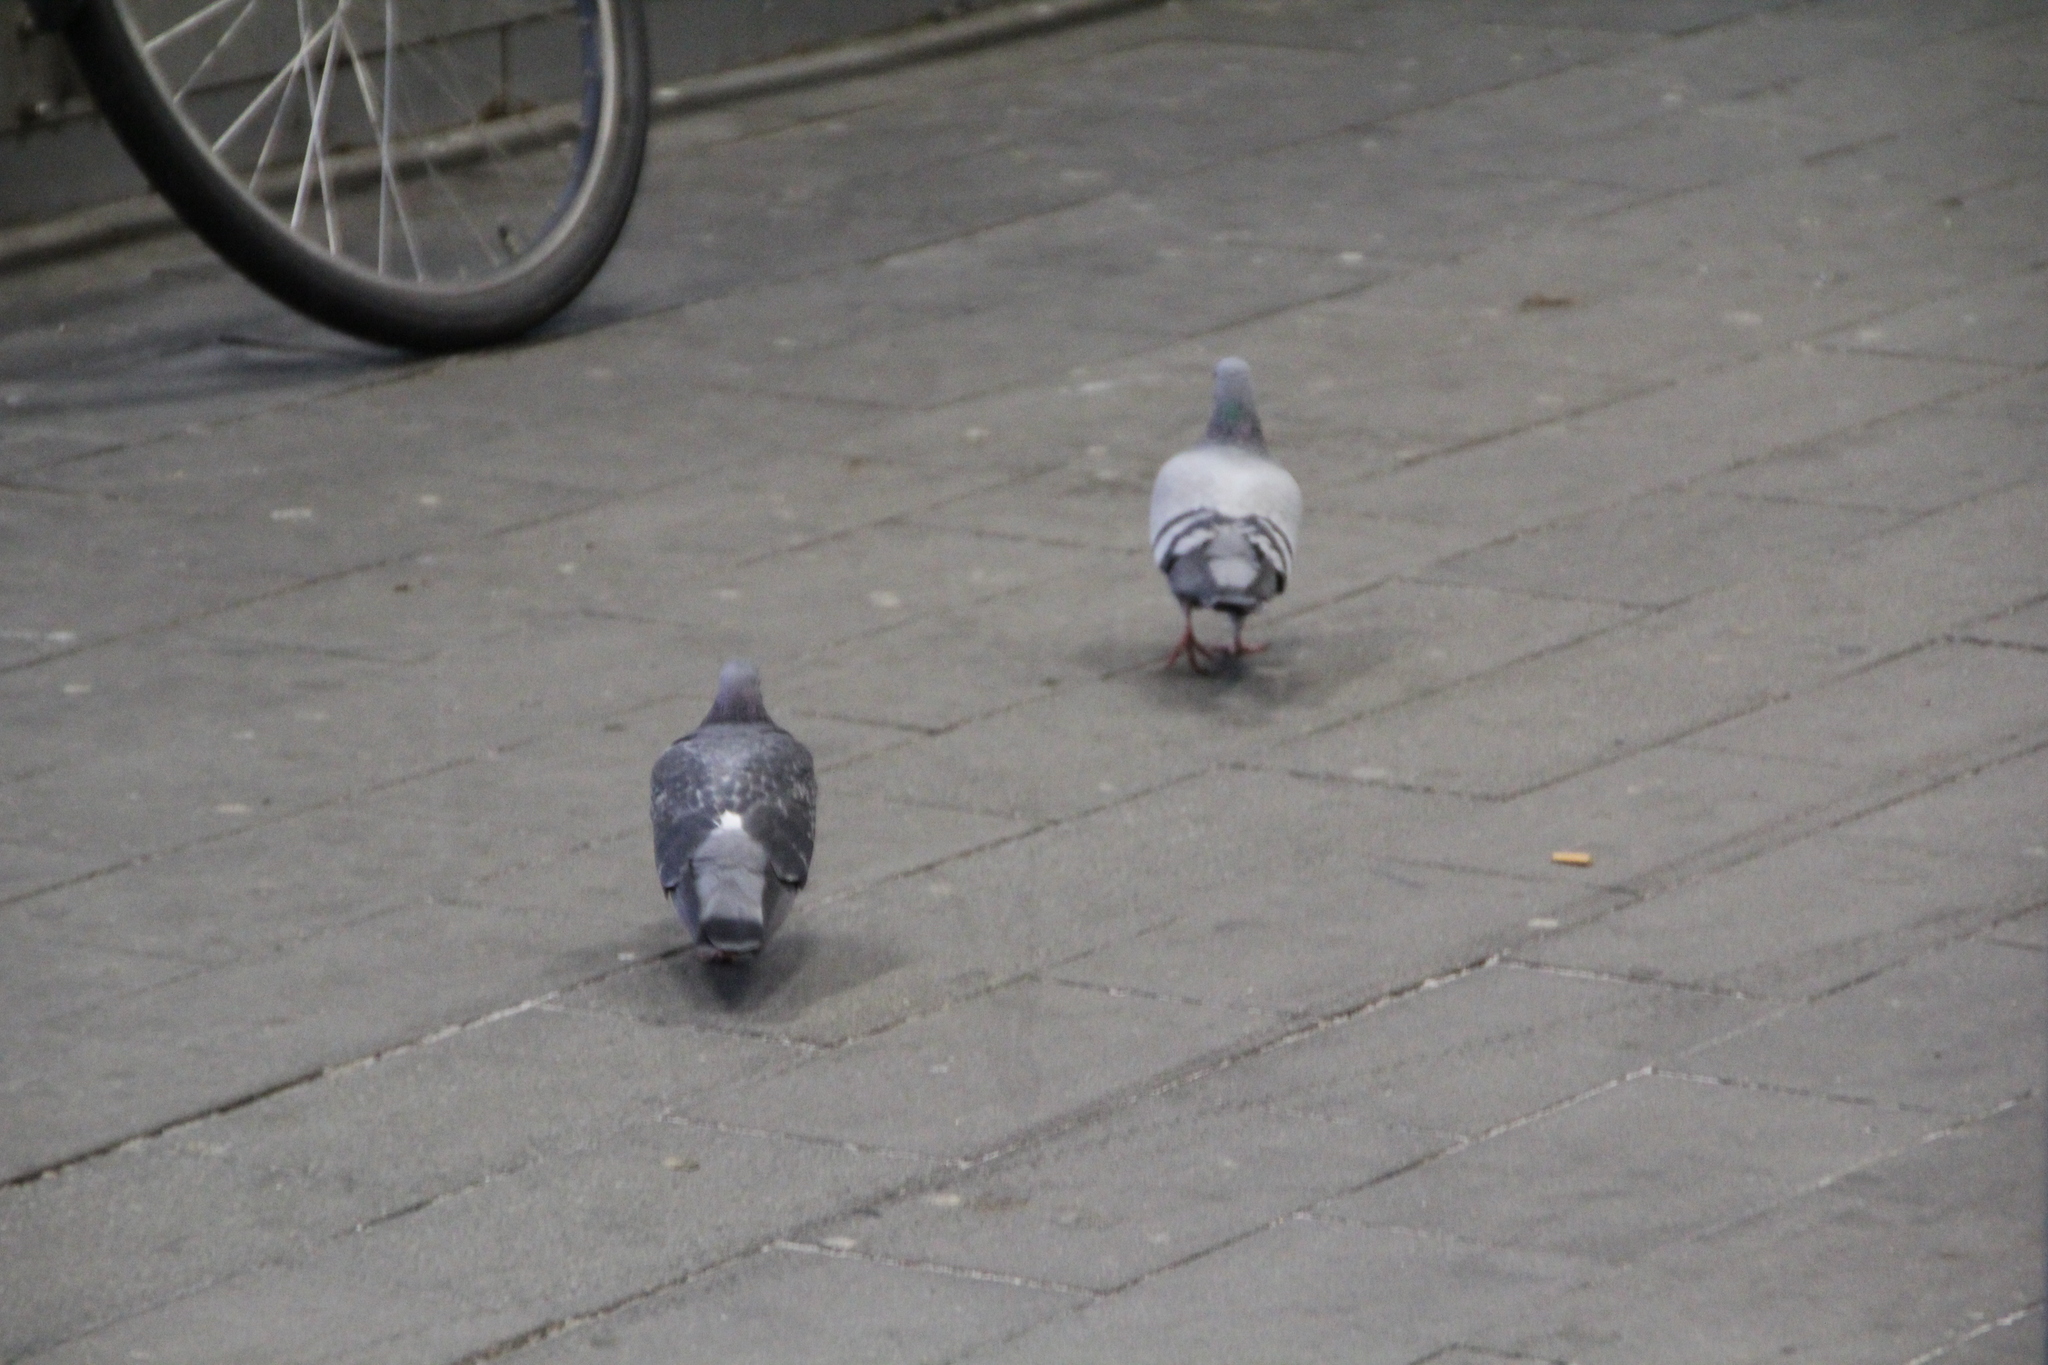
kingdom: Animalia
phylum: Chordata
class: Aves
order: Columbiformes
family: Columbidae
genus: Columba
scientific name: Columba livia
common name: Rock pigeon
